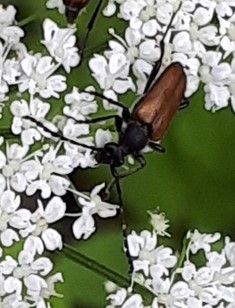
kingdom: Animalia
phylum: Arthropoda
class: Insecta
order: Coleoptera
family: Cerambycidae
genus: Paracorymbia
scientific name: Paracorymbia maculicornis
